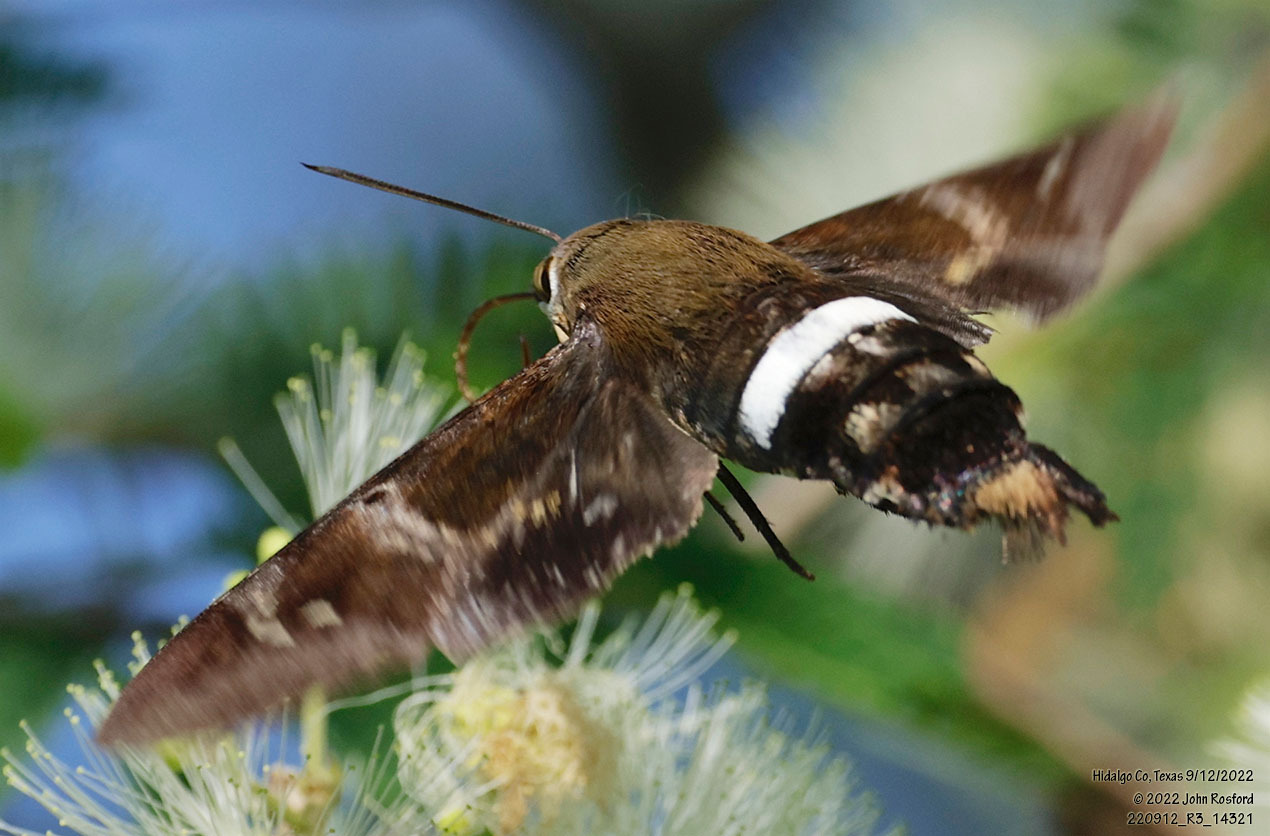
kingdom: Animalia
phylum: Arthropoda
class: Insecta
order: Lepidoptera
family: Sphingidae
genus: Aellopos
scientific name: Aellopos clavipes
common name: Clavipes sphinx
